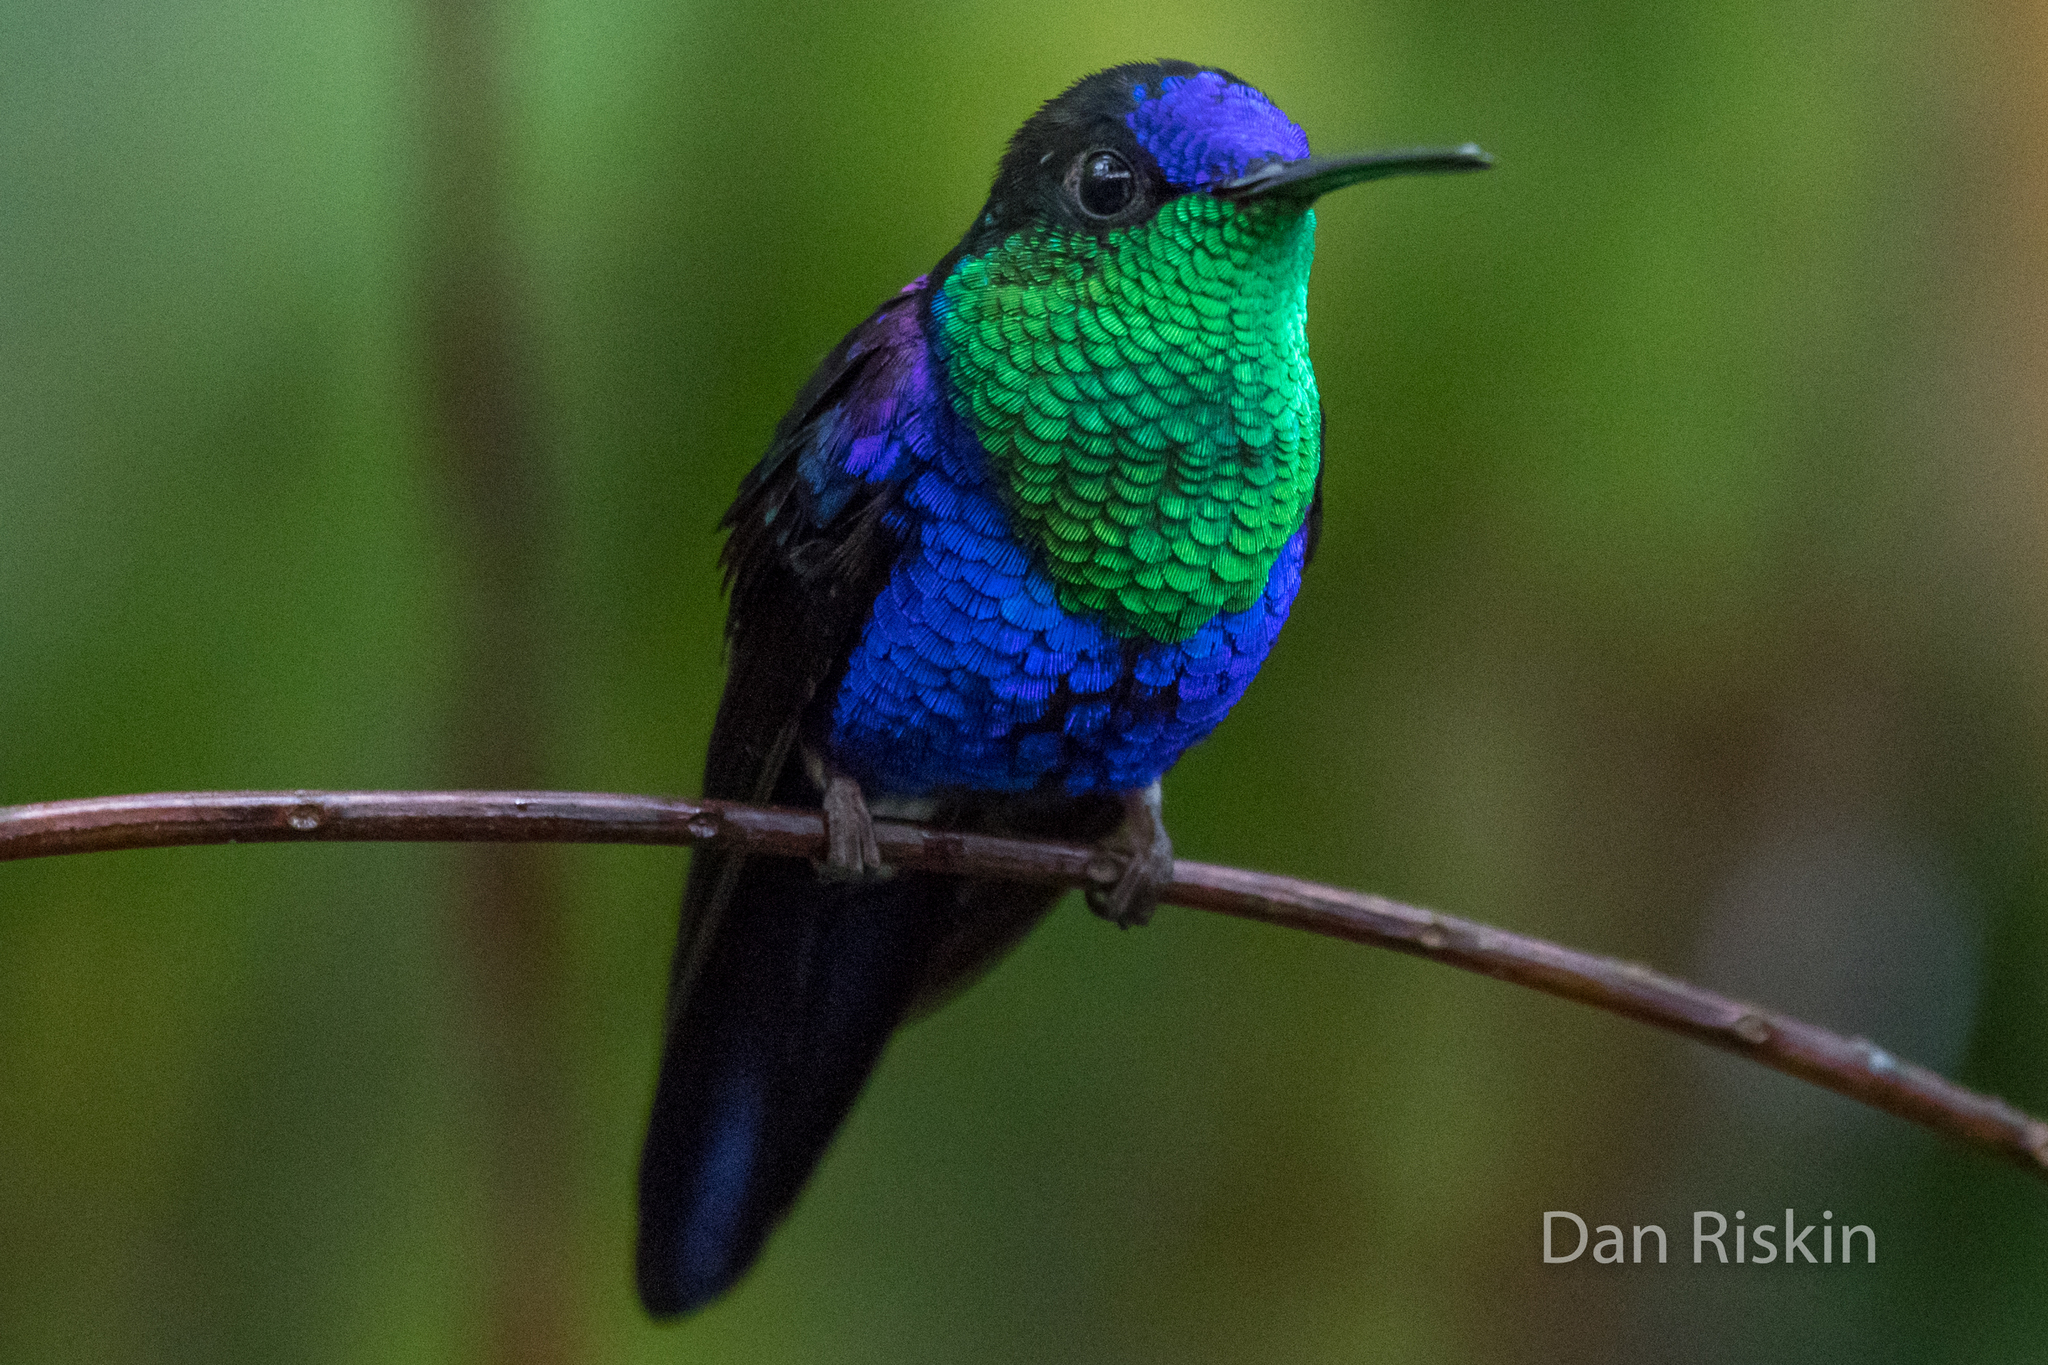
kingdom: Animalia
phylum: Chordata
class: Aves
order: Apodiformes
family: Trochilidae
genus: Thalurania
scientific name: Thalurania colombica
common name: Crowned woodnymph
